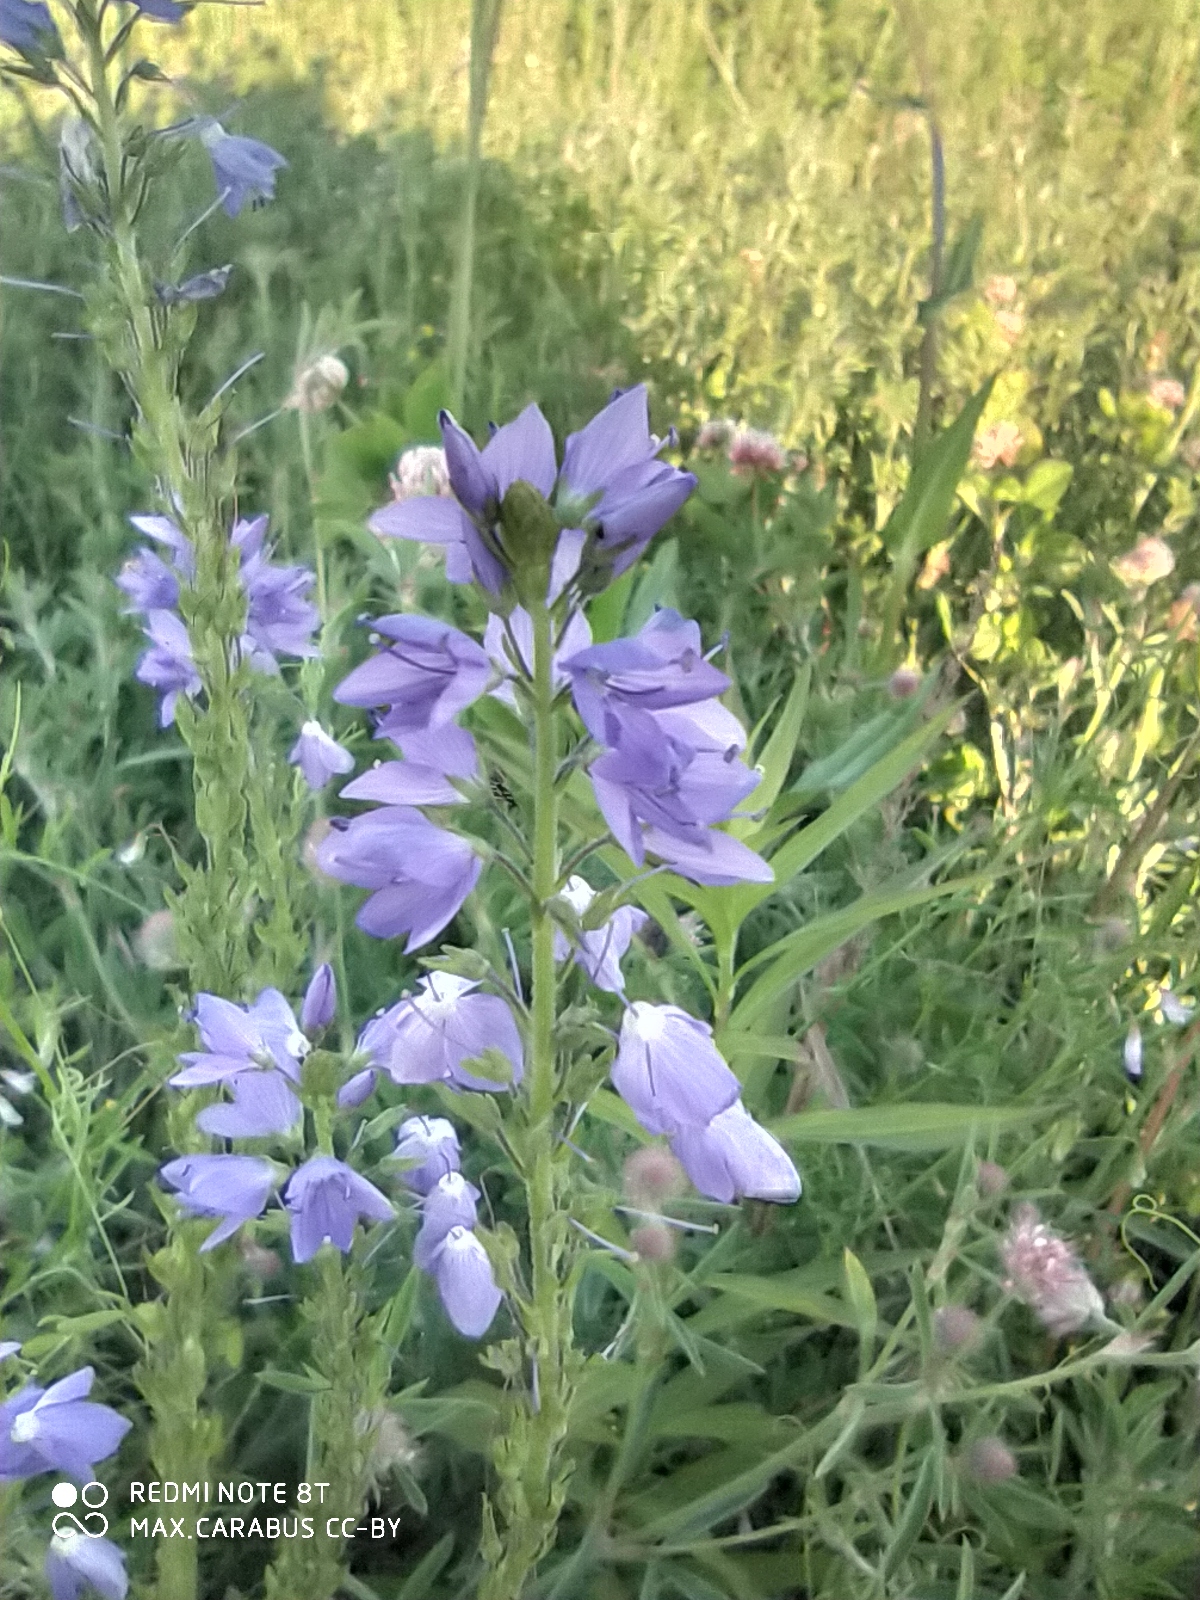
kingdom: Plantae
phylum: Tracheophyta
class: Magnoliopsida
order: Lamiales
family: Plantaginaceae
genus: Veronica
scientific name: Veronica teucrium
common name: Large speedwell
